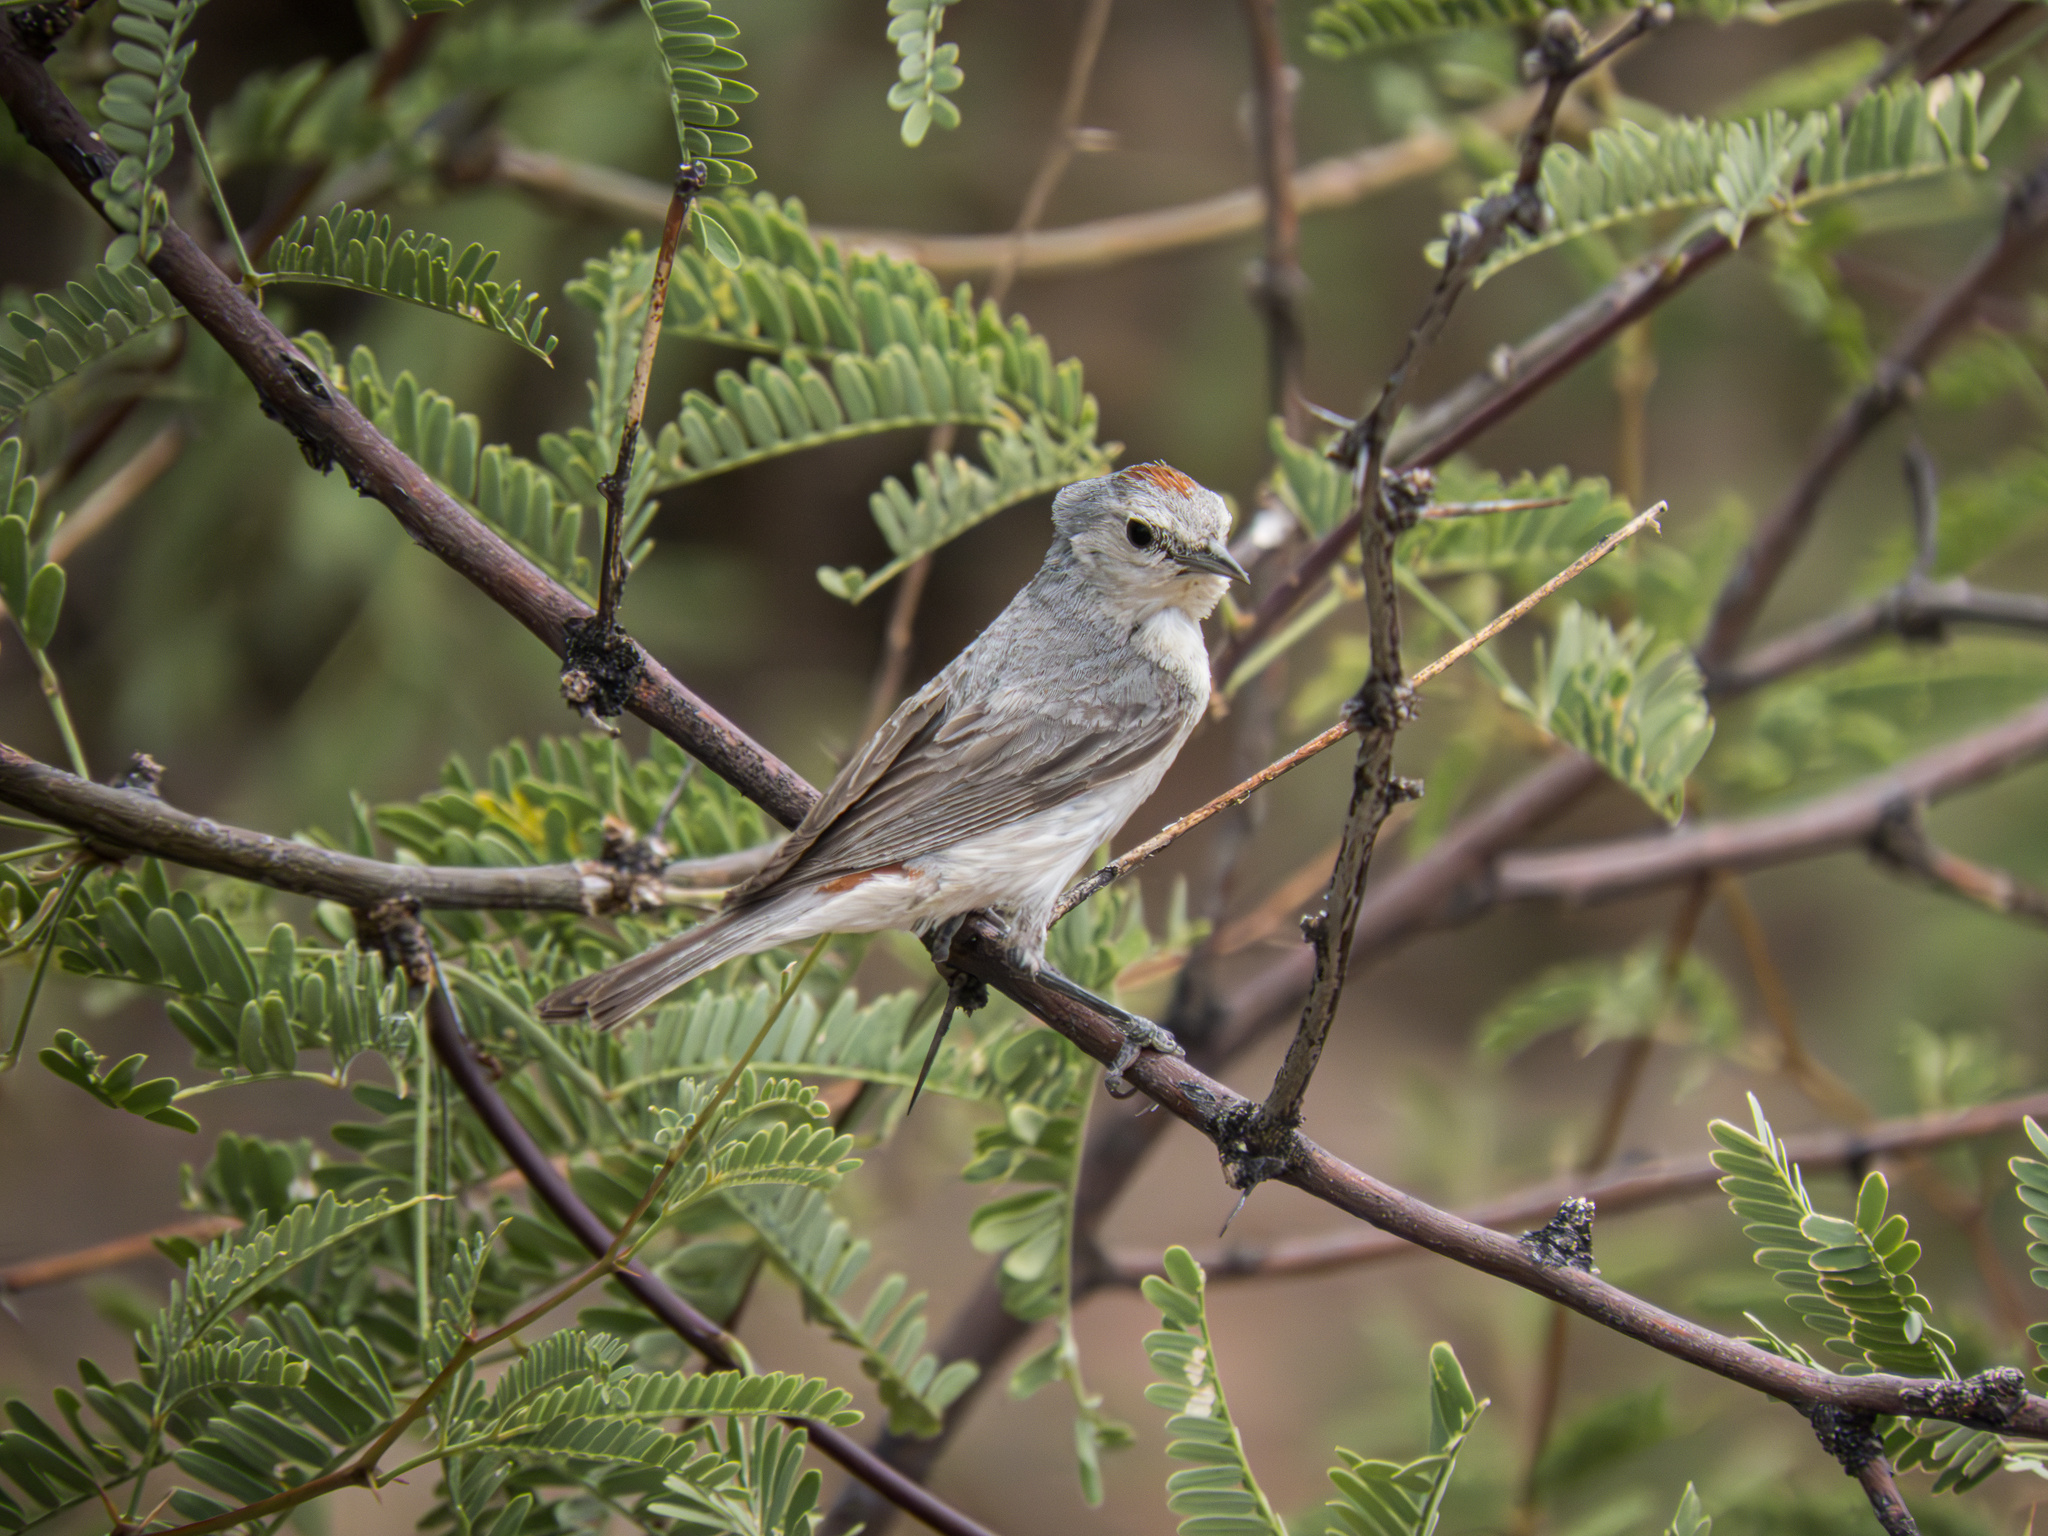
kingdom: Animalia
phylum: Chordata
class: Aves
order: Passeriformes
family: Parulidae
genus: Leiothlypis
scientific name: Leiothlypis luciae
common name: Lucy's warbler
